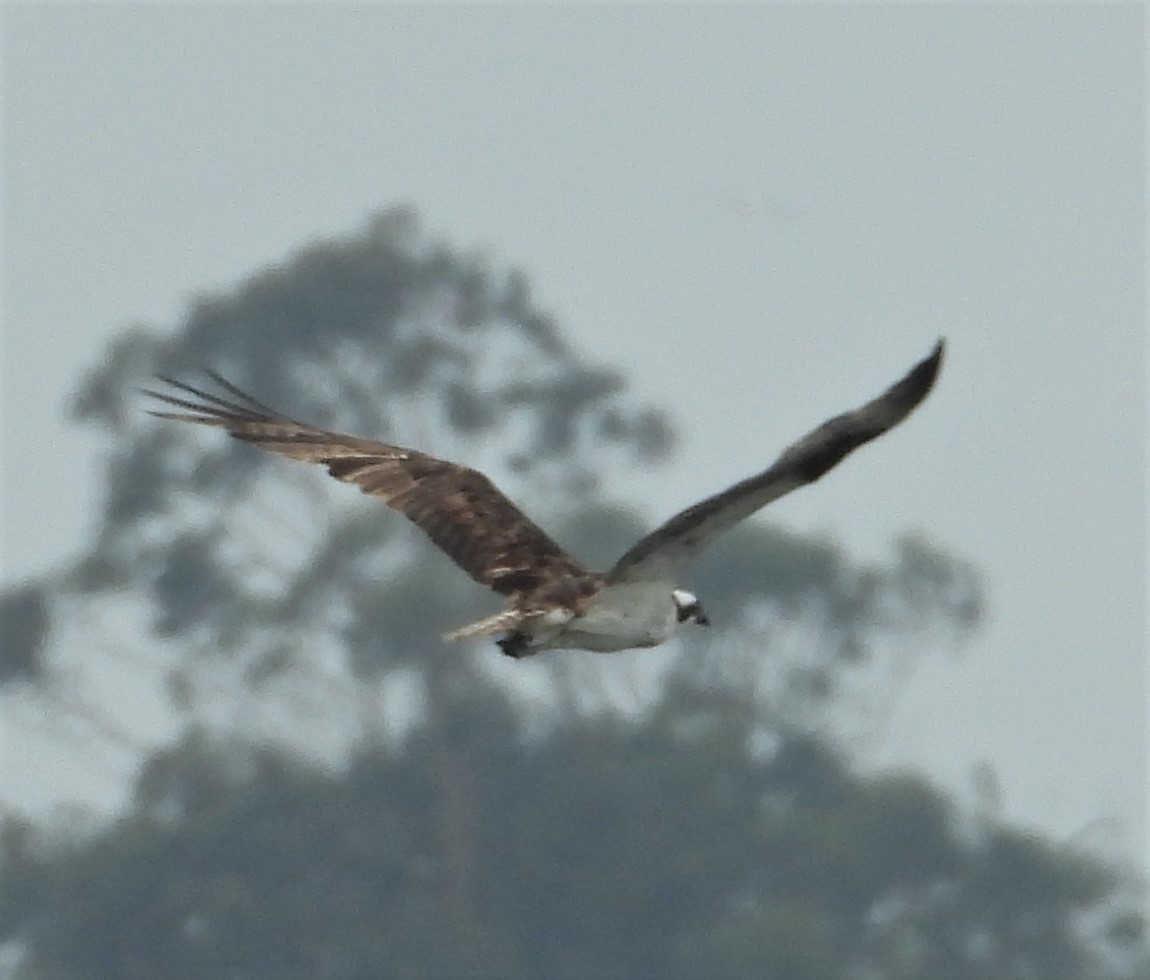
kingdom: Animalia
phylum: Chordata
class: Aves
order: Accipitriformes
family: Pandionidae
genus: Pandion
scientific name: Pandion haliaetus
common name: Osprey
